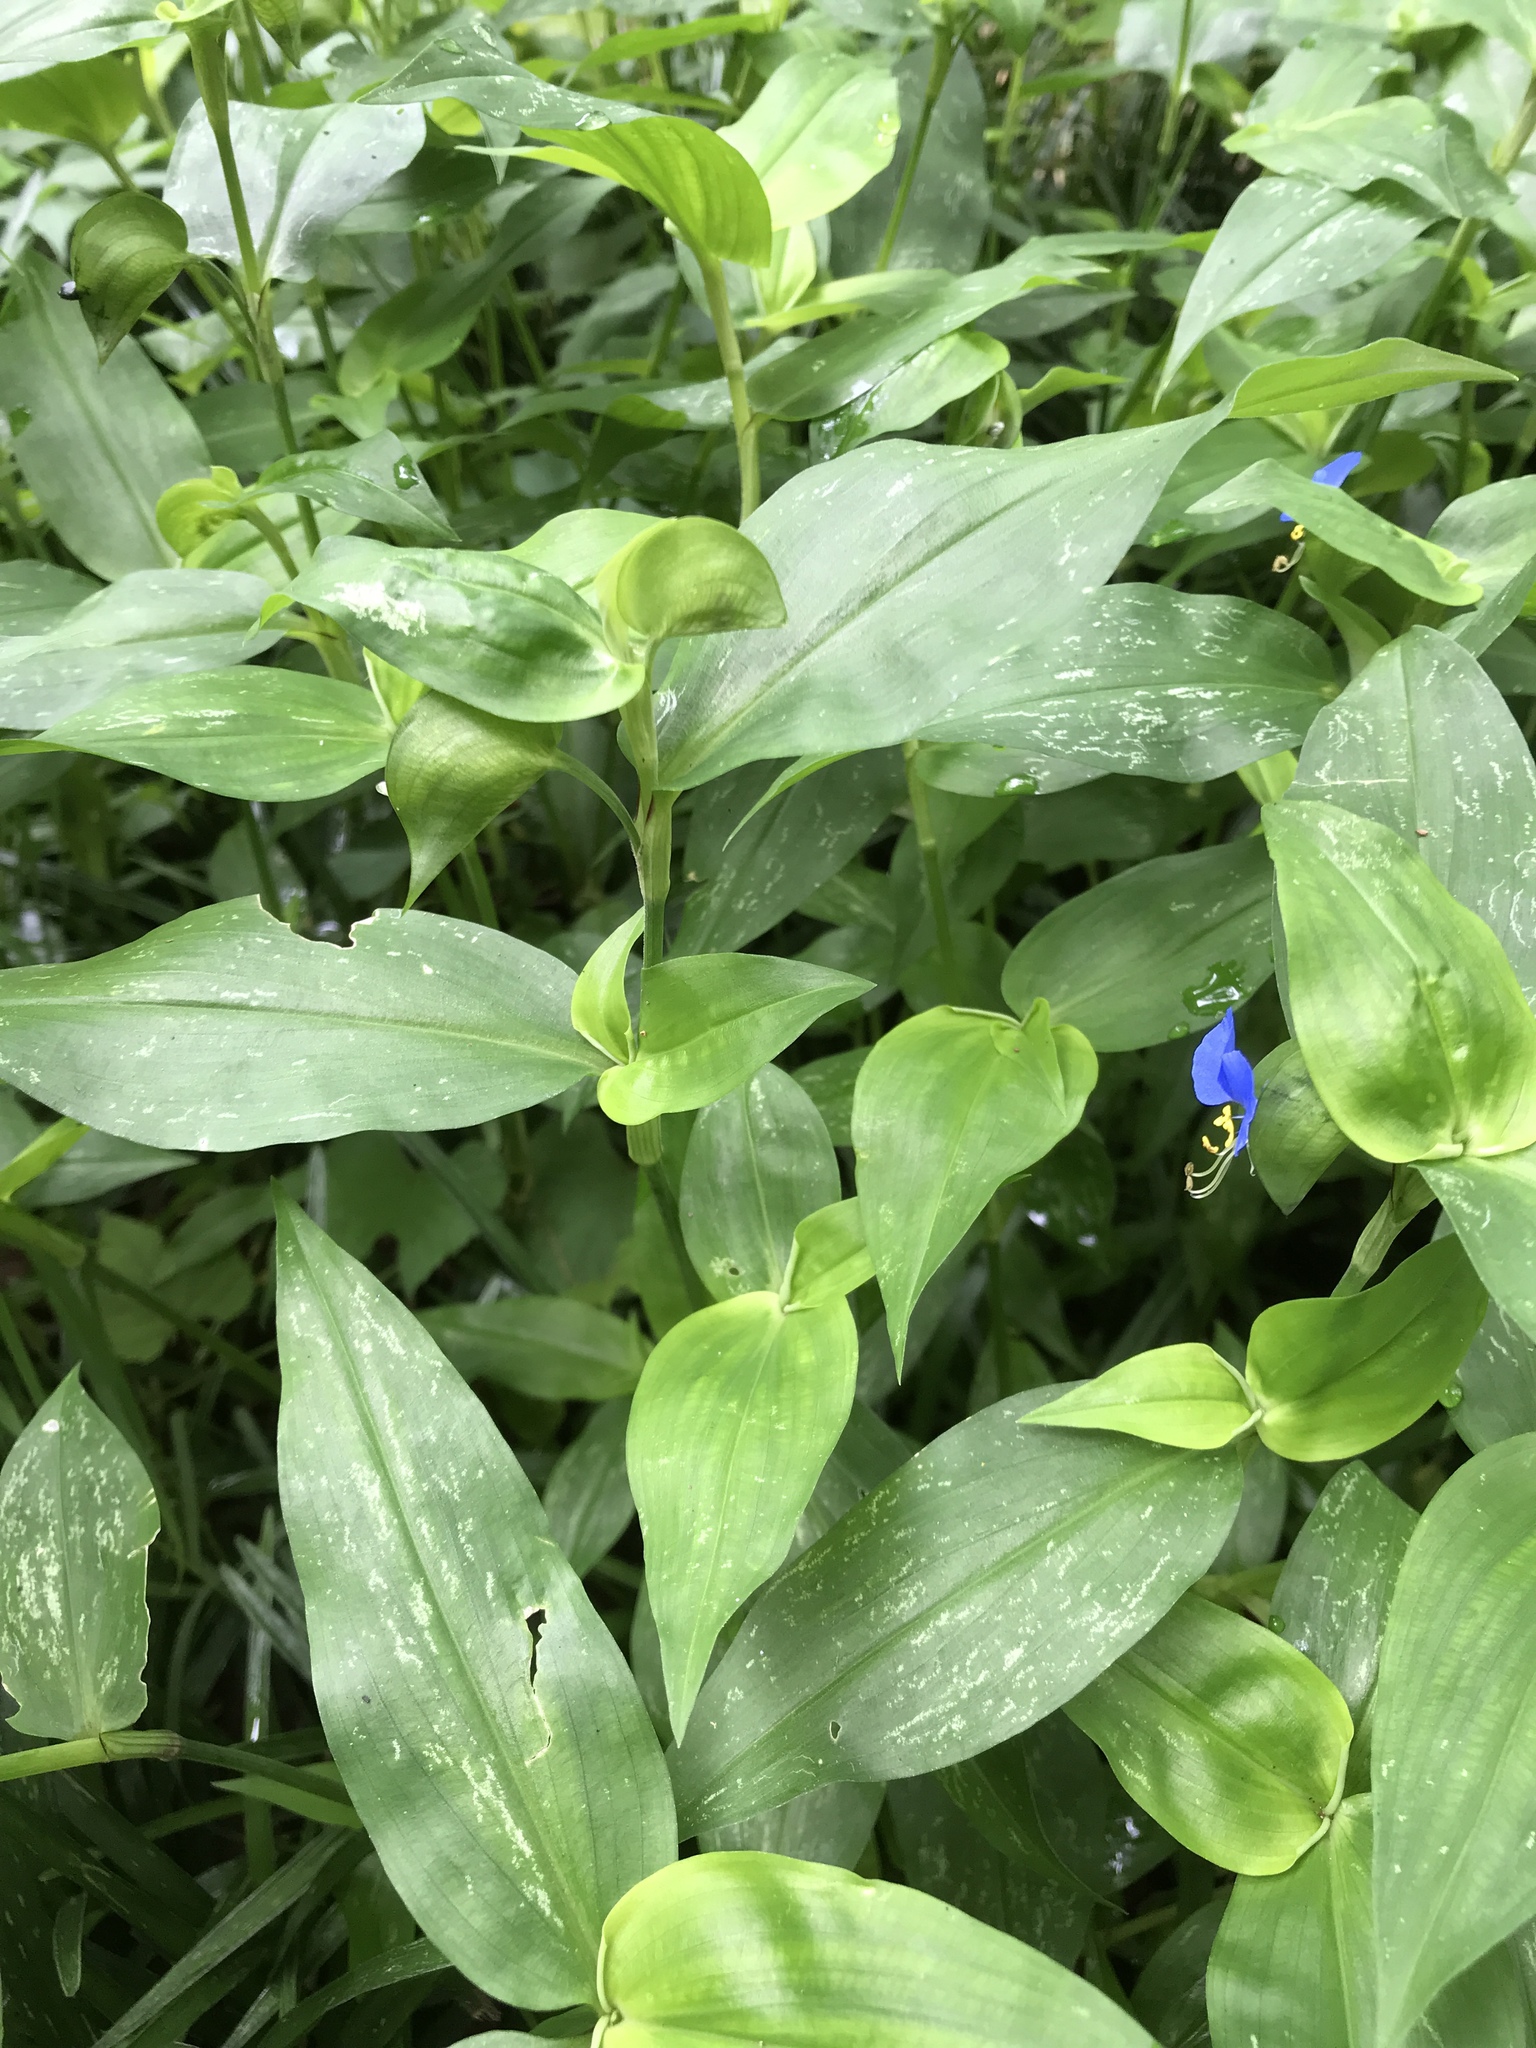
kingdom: Plantae
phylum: Tracheophyta
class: Liliopsida
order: Commelinales
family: Commelinaceae
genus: Commelina
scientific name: Commelina communis
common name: Asiatic dayflower
